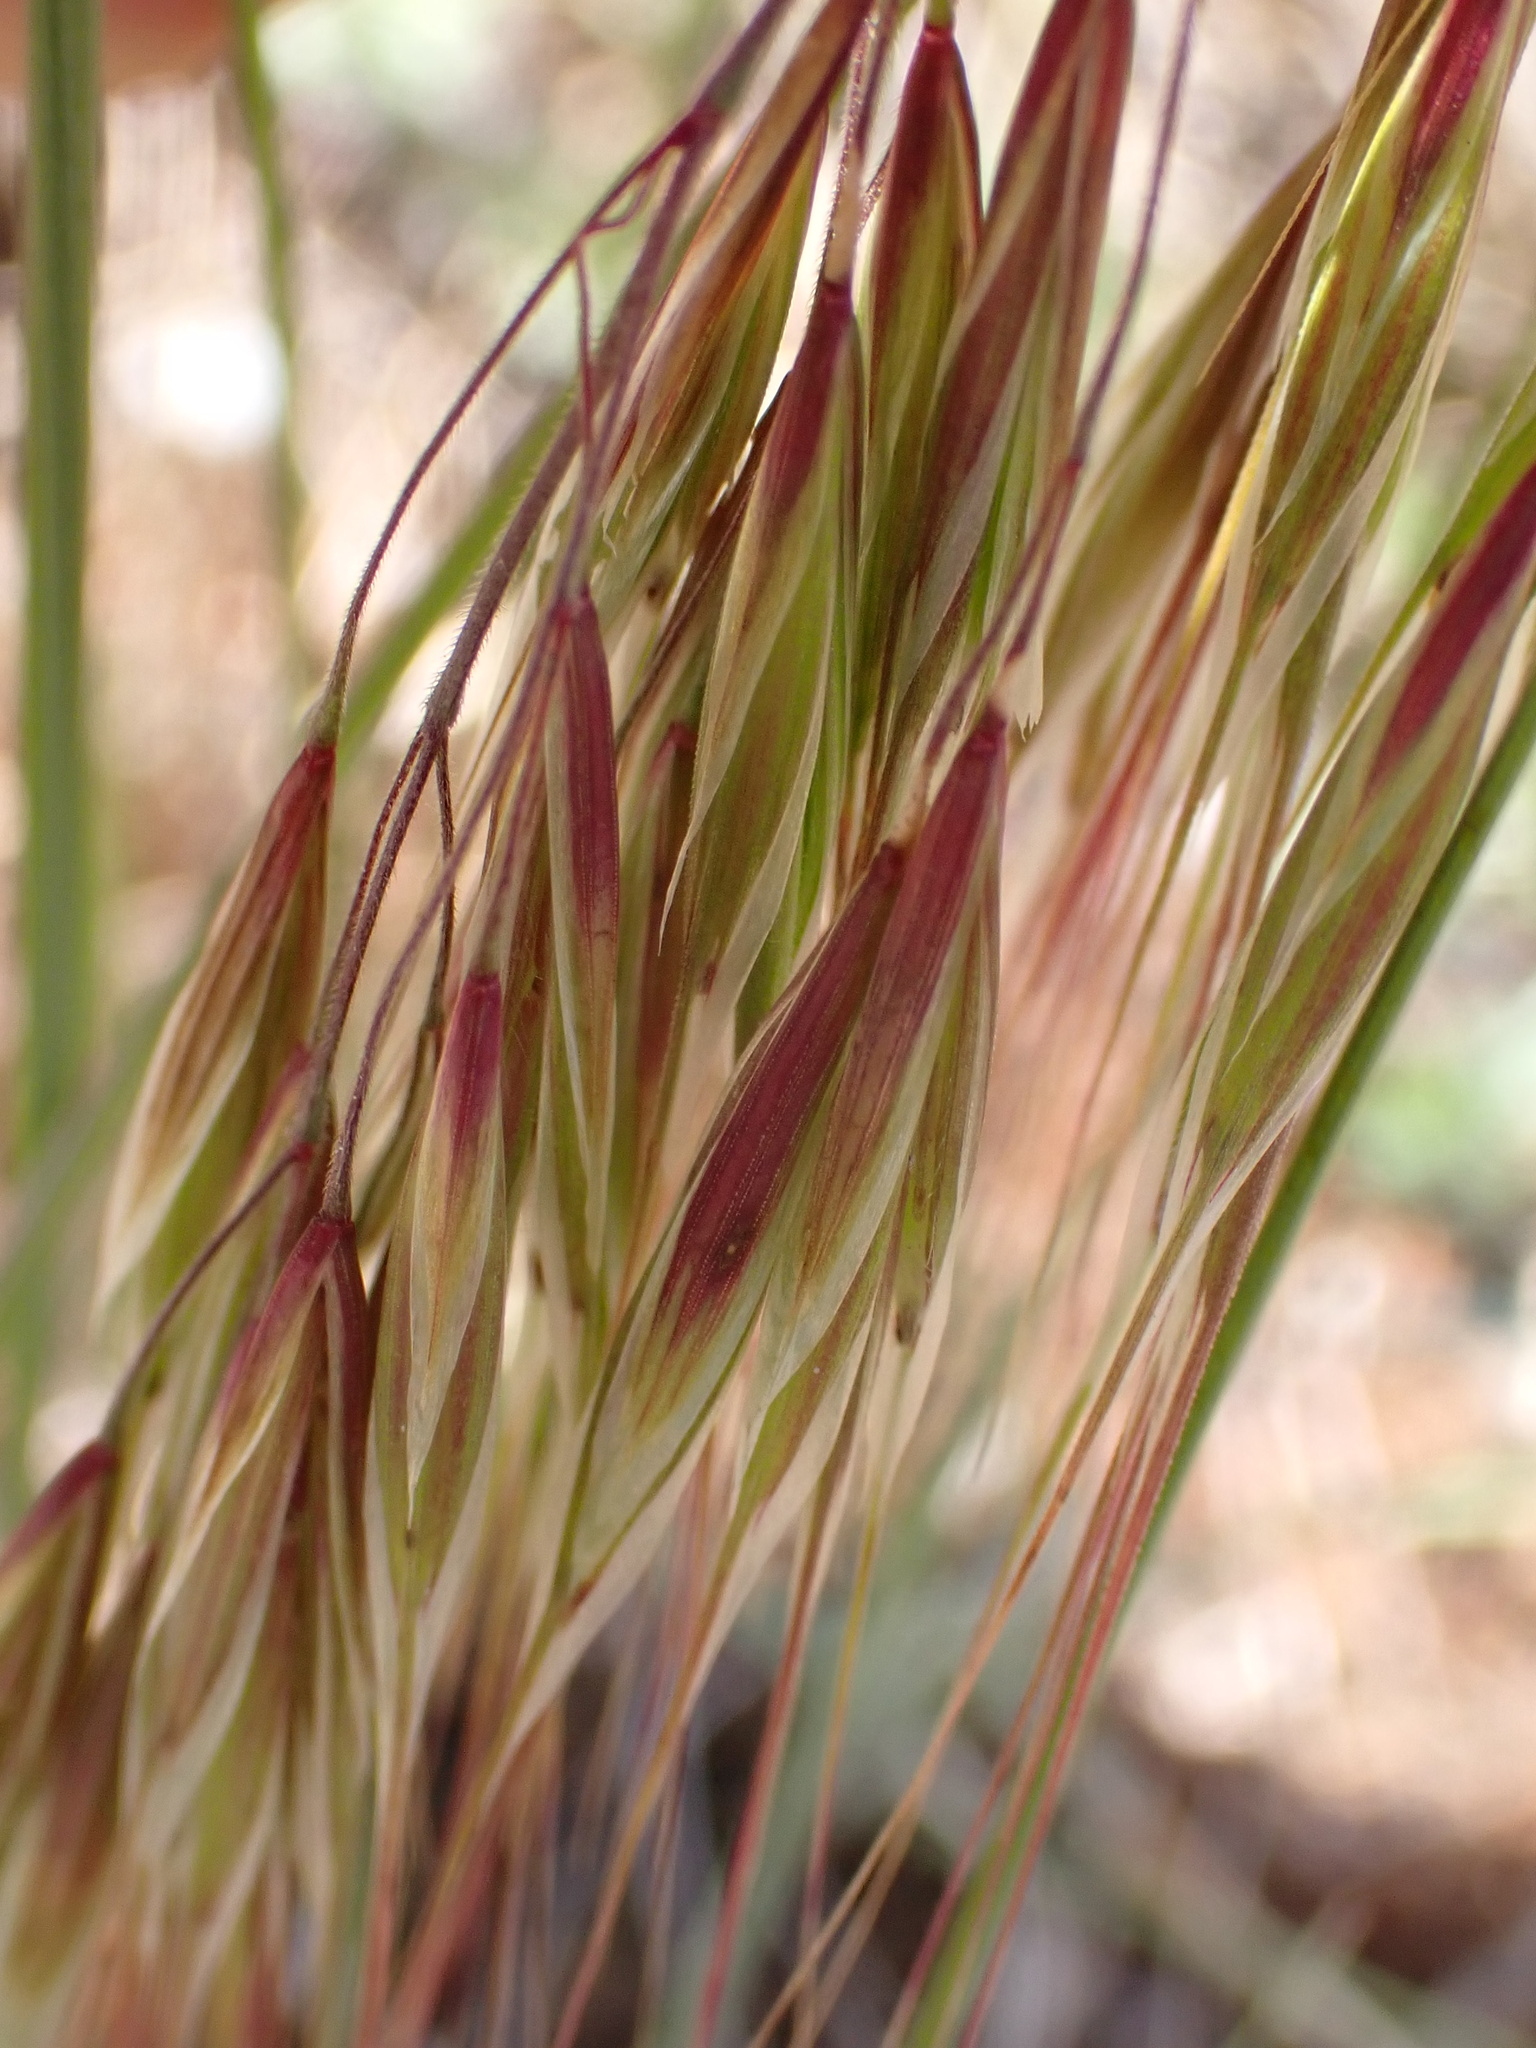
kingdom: Plantae
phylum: Tracheophyta
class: Liliopsida
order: Poales
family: Poaceae
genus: Bromus
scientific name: Bromus tectorum
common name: Cheatgrass
